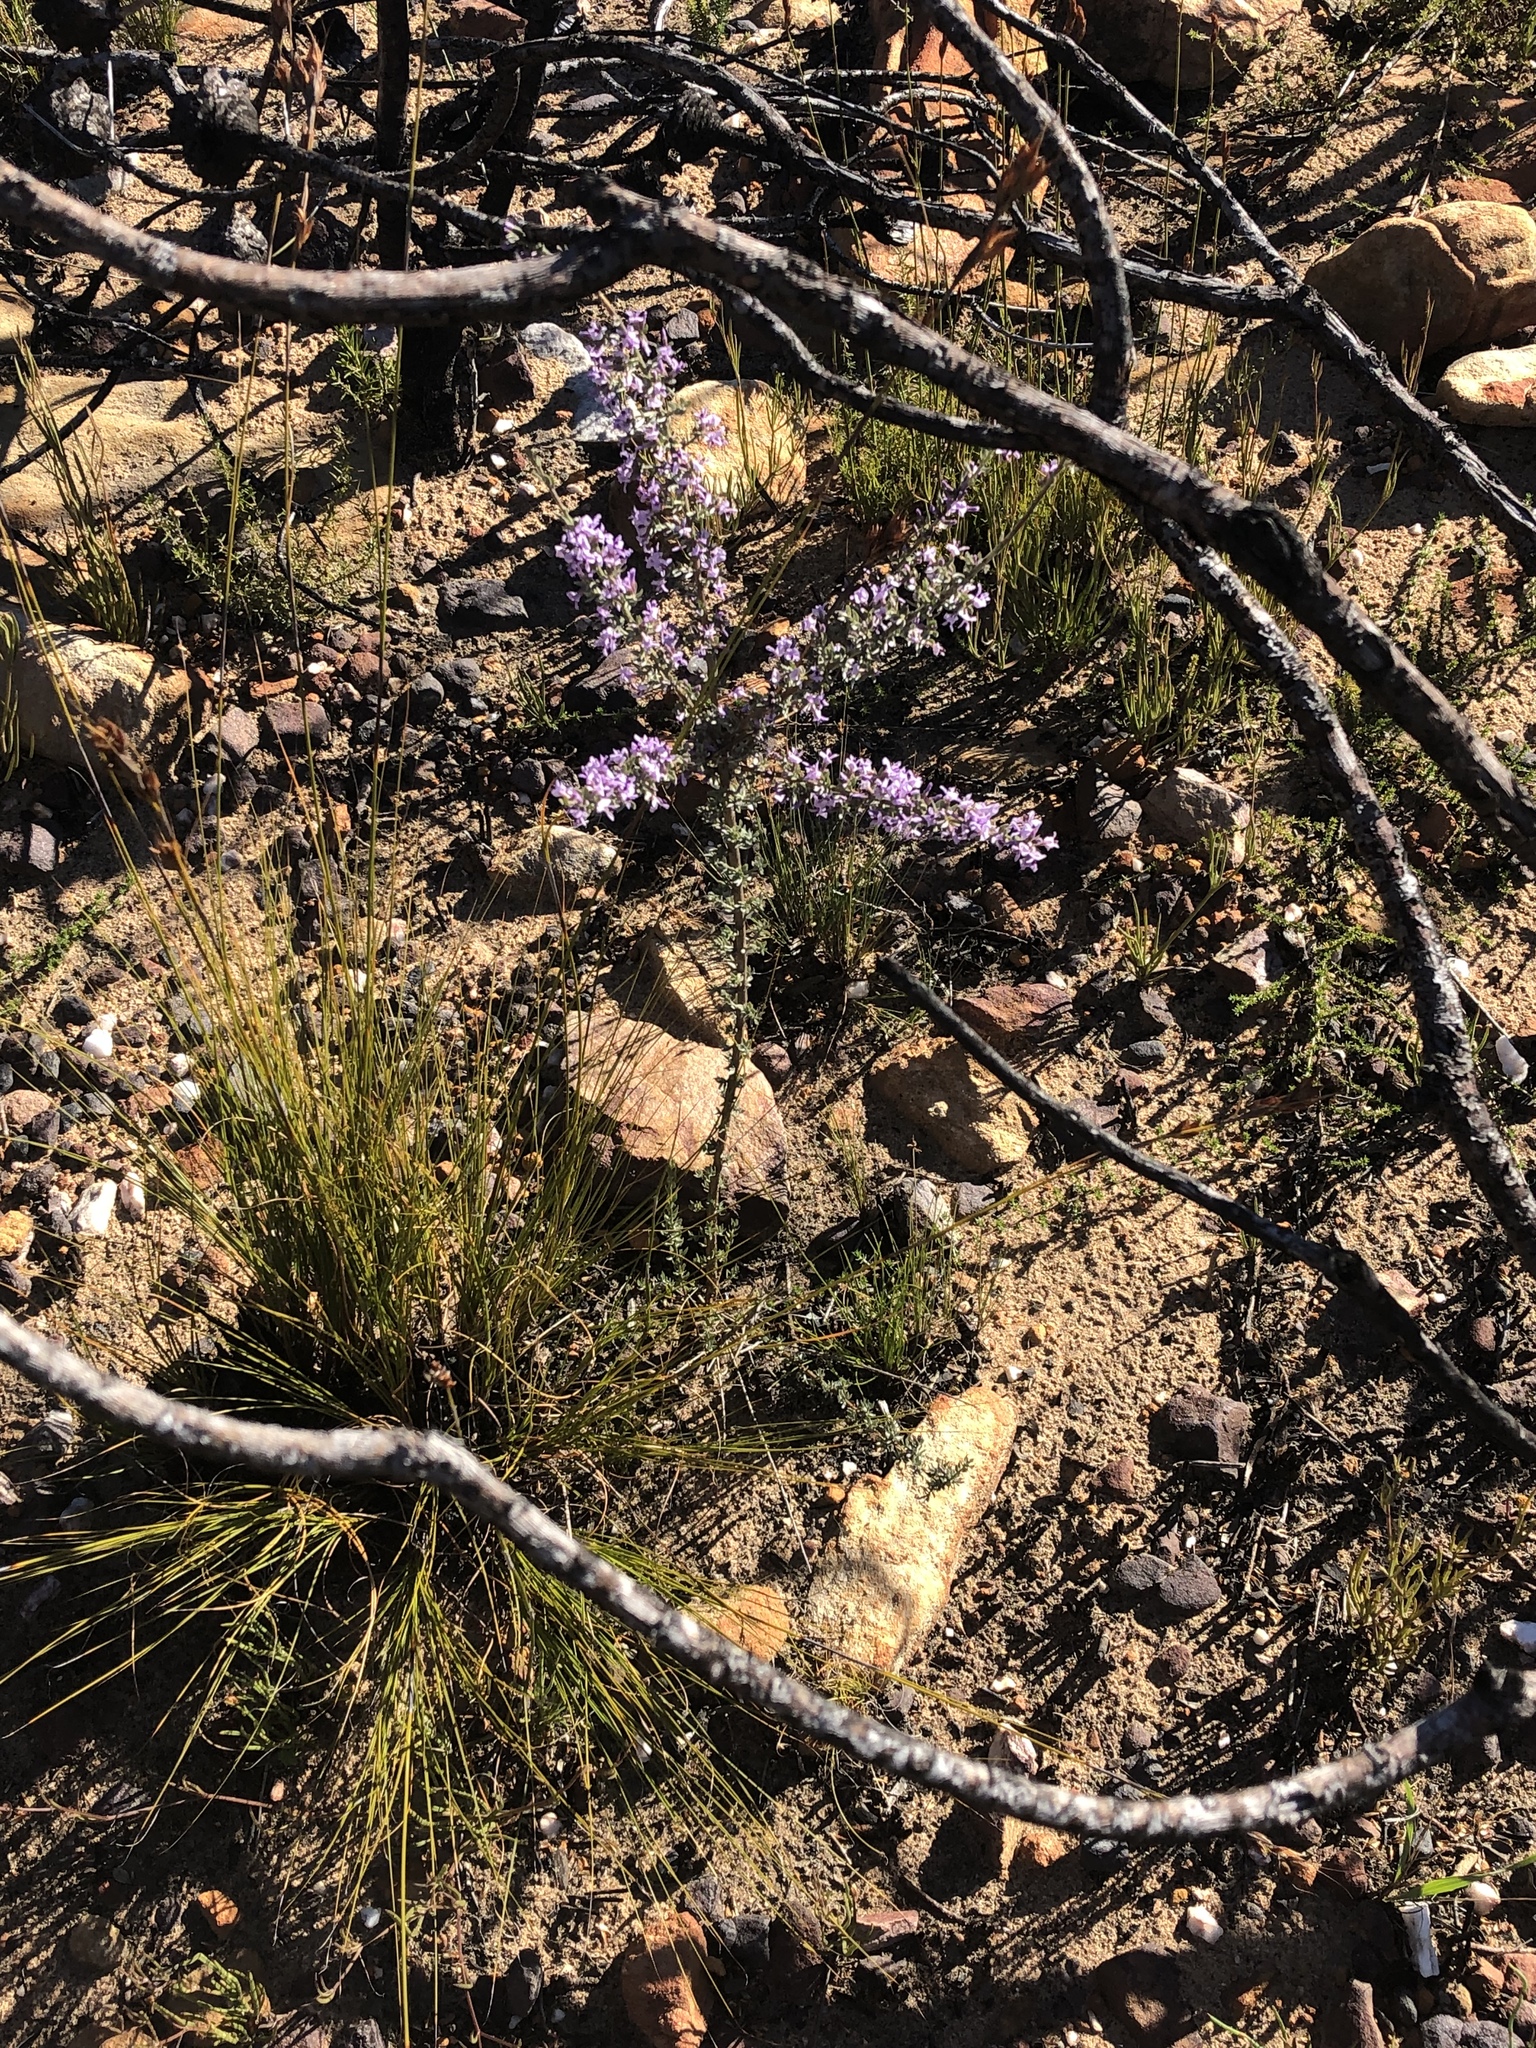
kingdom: Plantae
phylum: Tracheophyta
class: Magnoliopsida
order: Fabales
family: Fabaceae
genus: Amphithalea
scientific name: Amphithalea violacea
